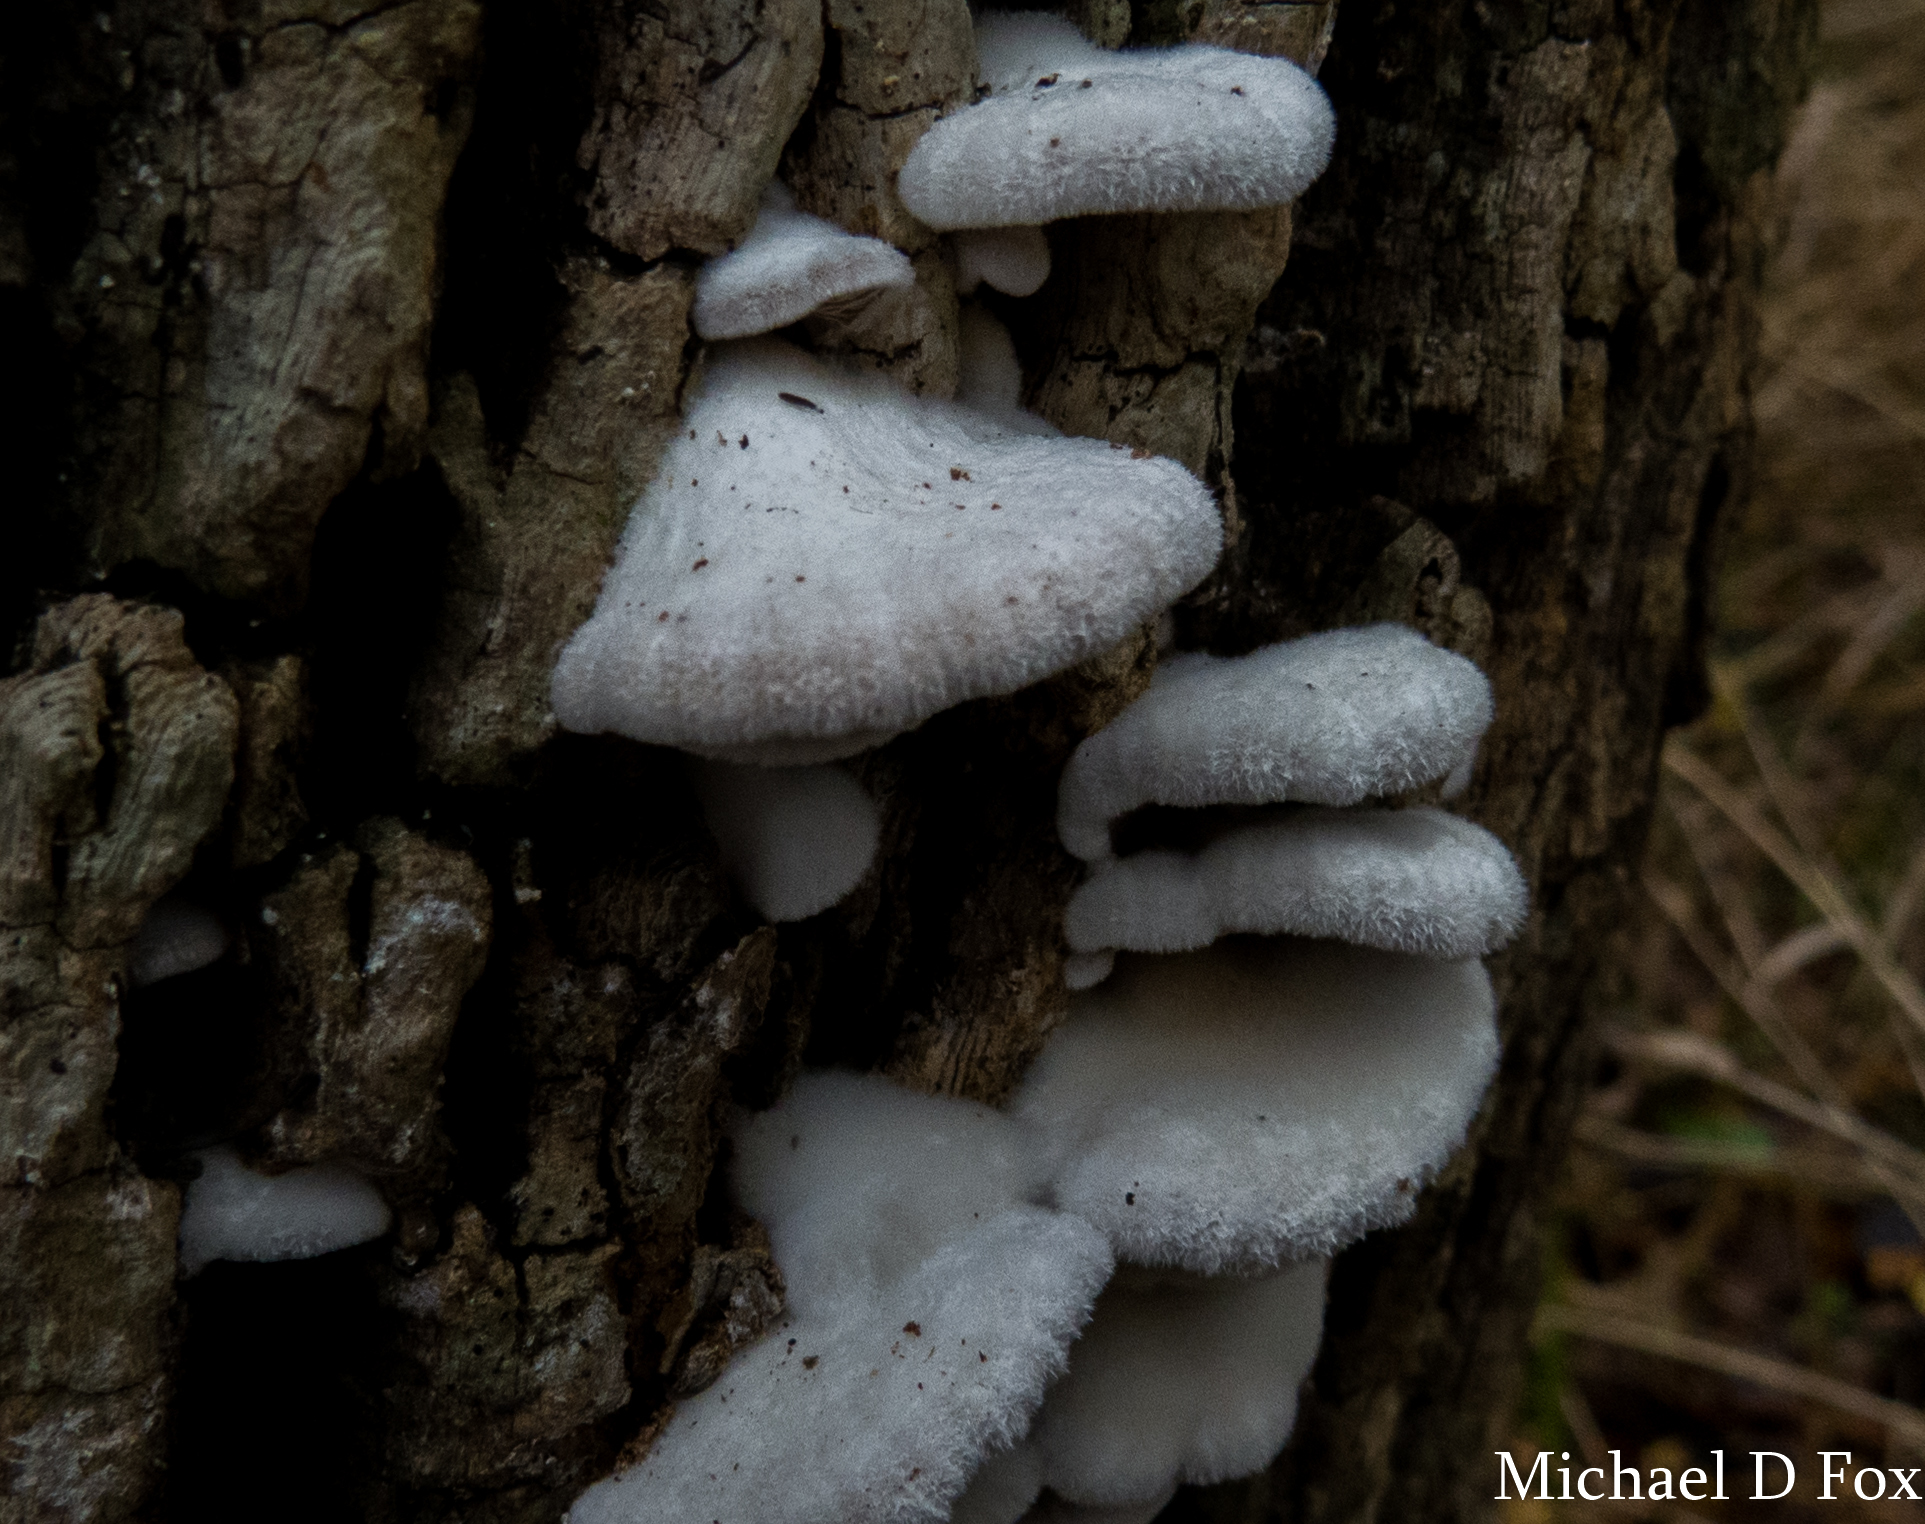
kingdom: Fungi
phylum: Basidiomycota
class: Agaricomycetes
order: Agaricales
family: Schizophyllaceae
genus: Schizophyllum
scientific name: Schizophyllum commune
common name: Common porecrust
